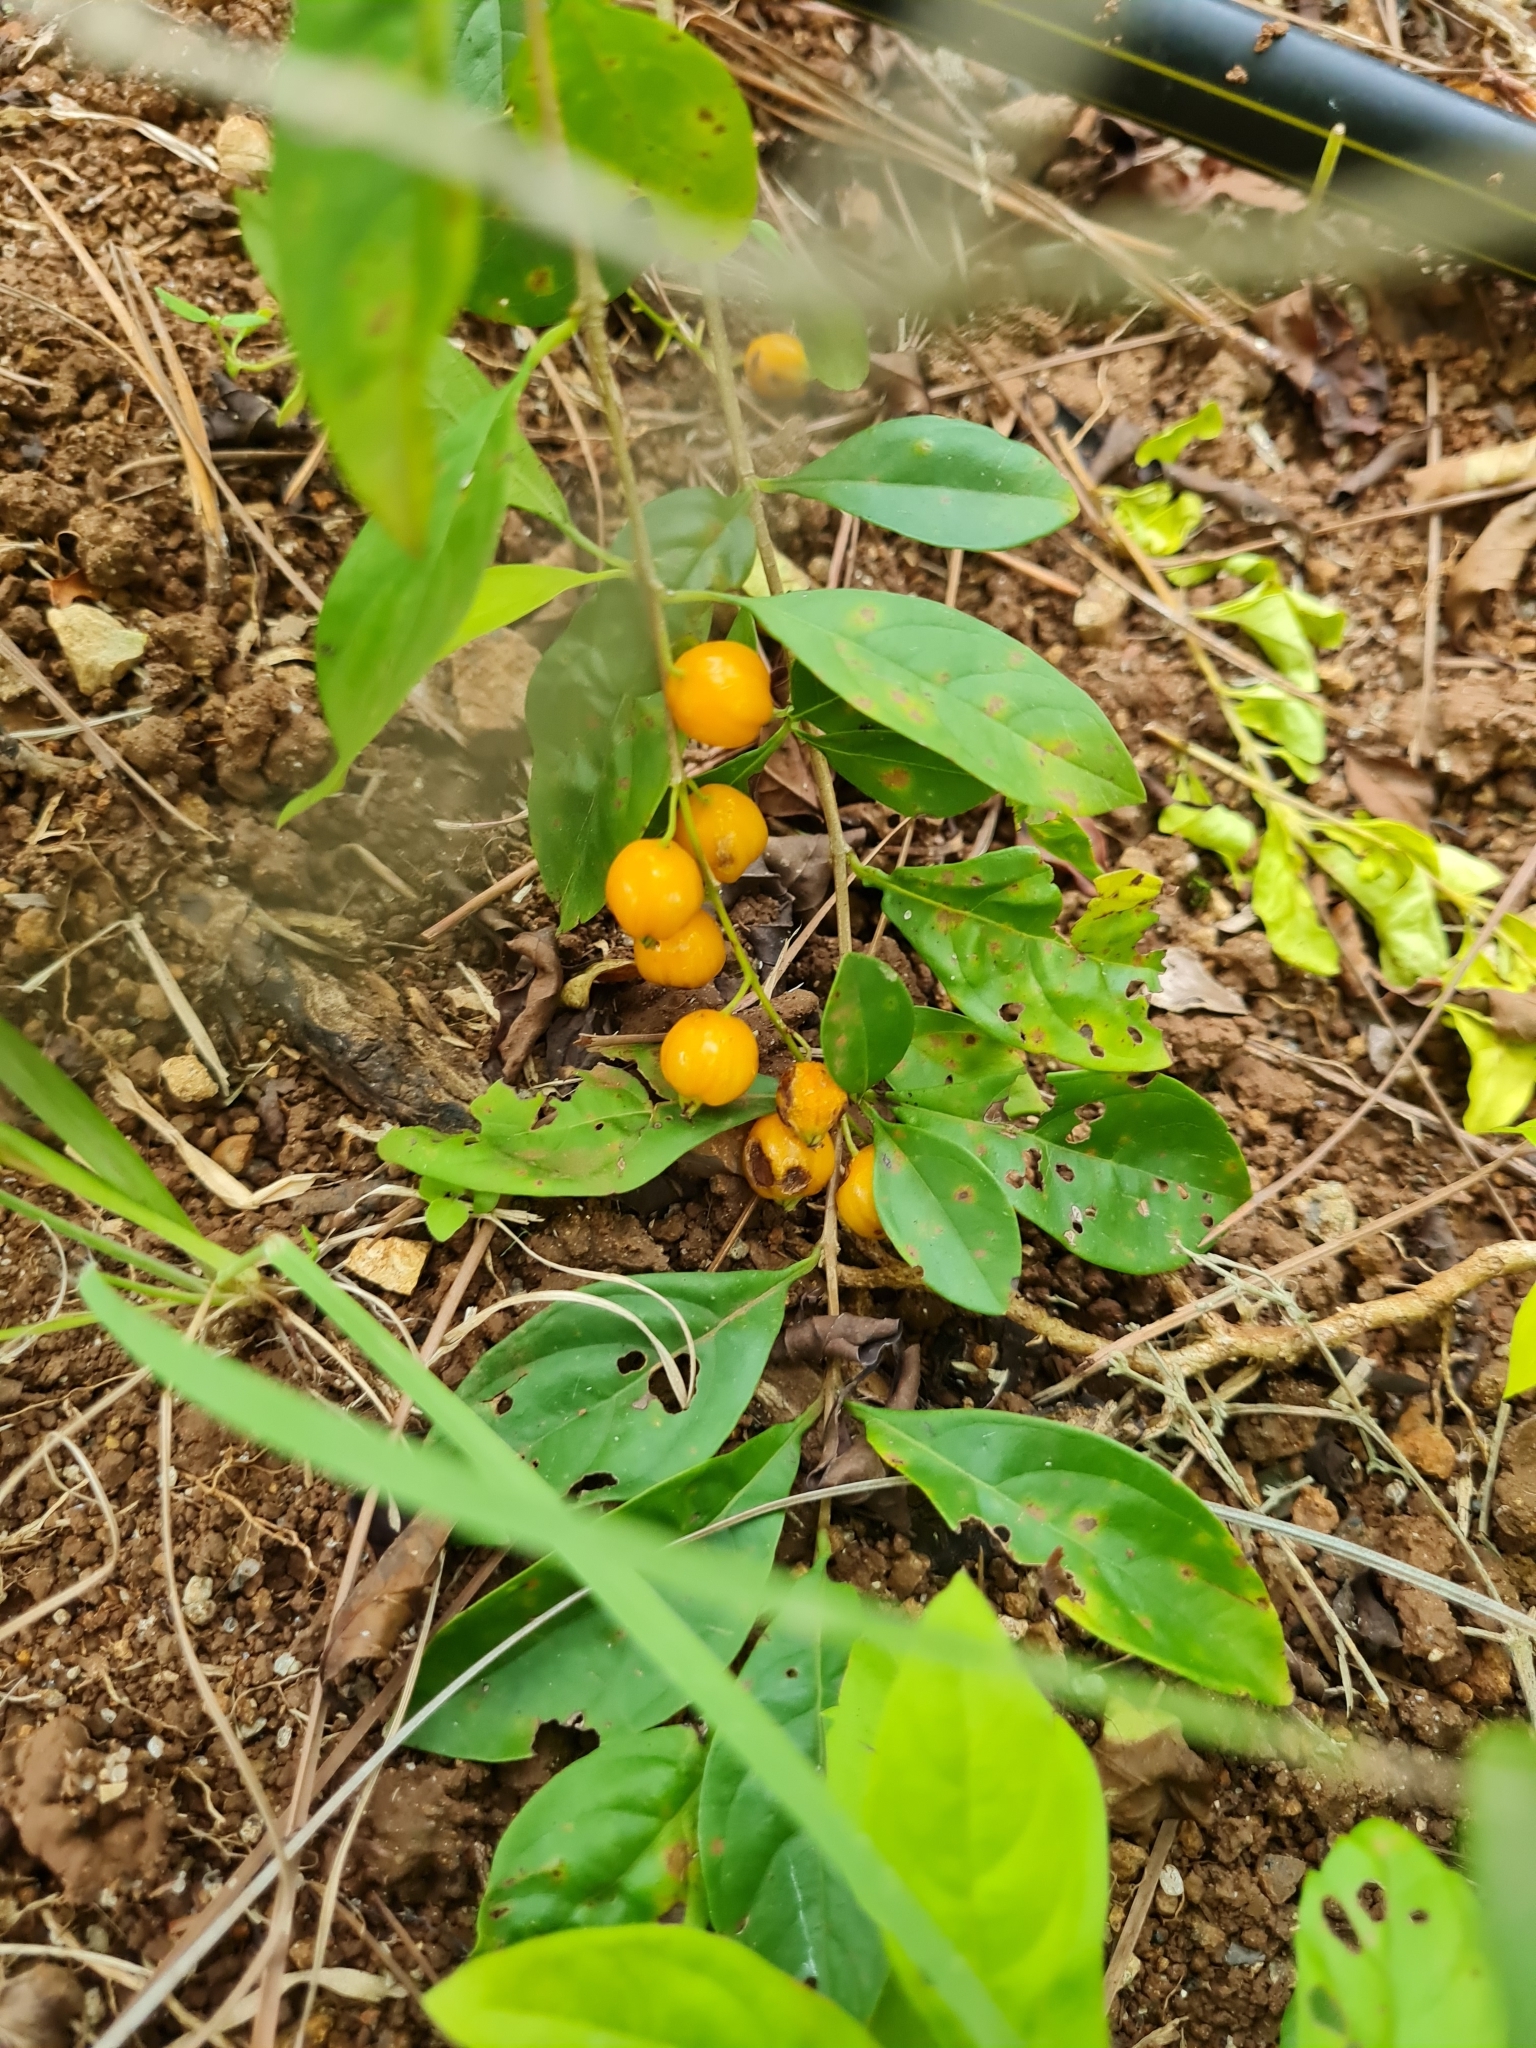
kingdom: Plantae
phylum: Tracheophyta
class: Magnoliopsida
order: Lamiales
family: Verbenaceae
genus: Duranta
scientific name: Duranta erecta
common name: Golden dewdrops
